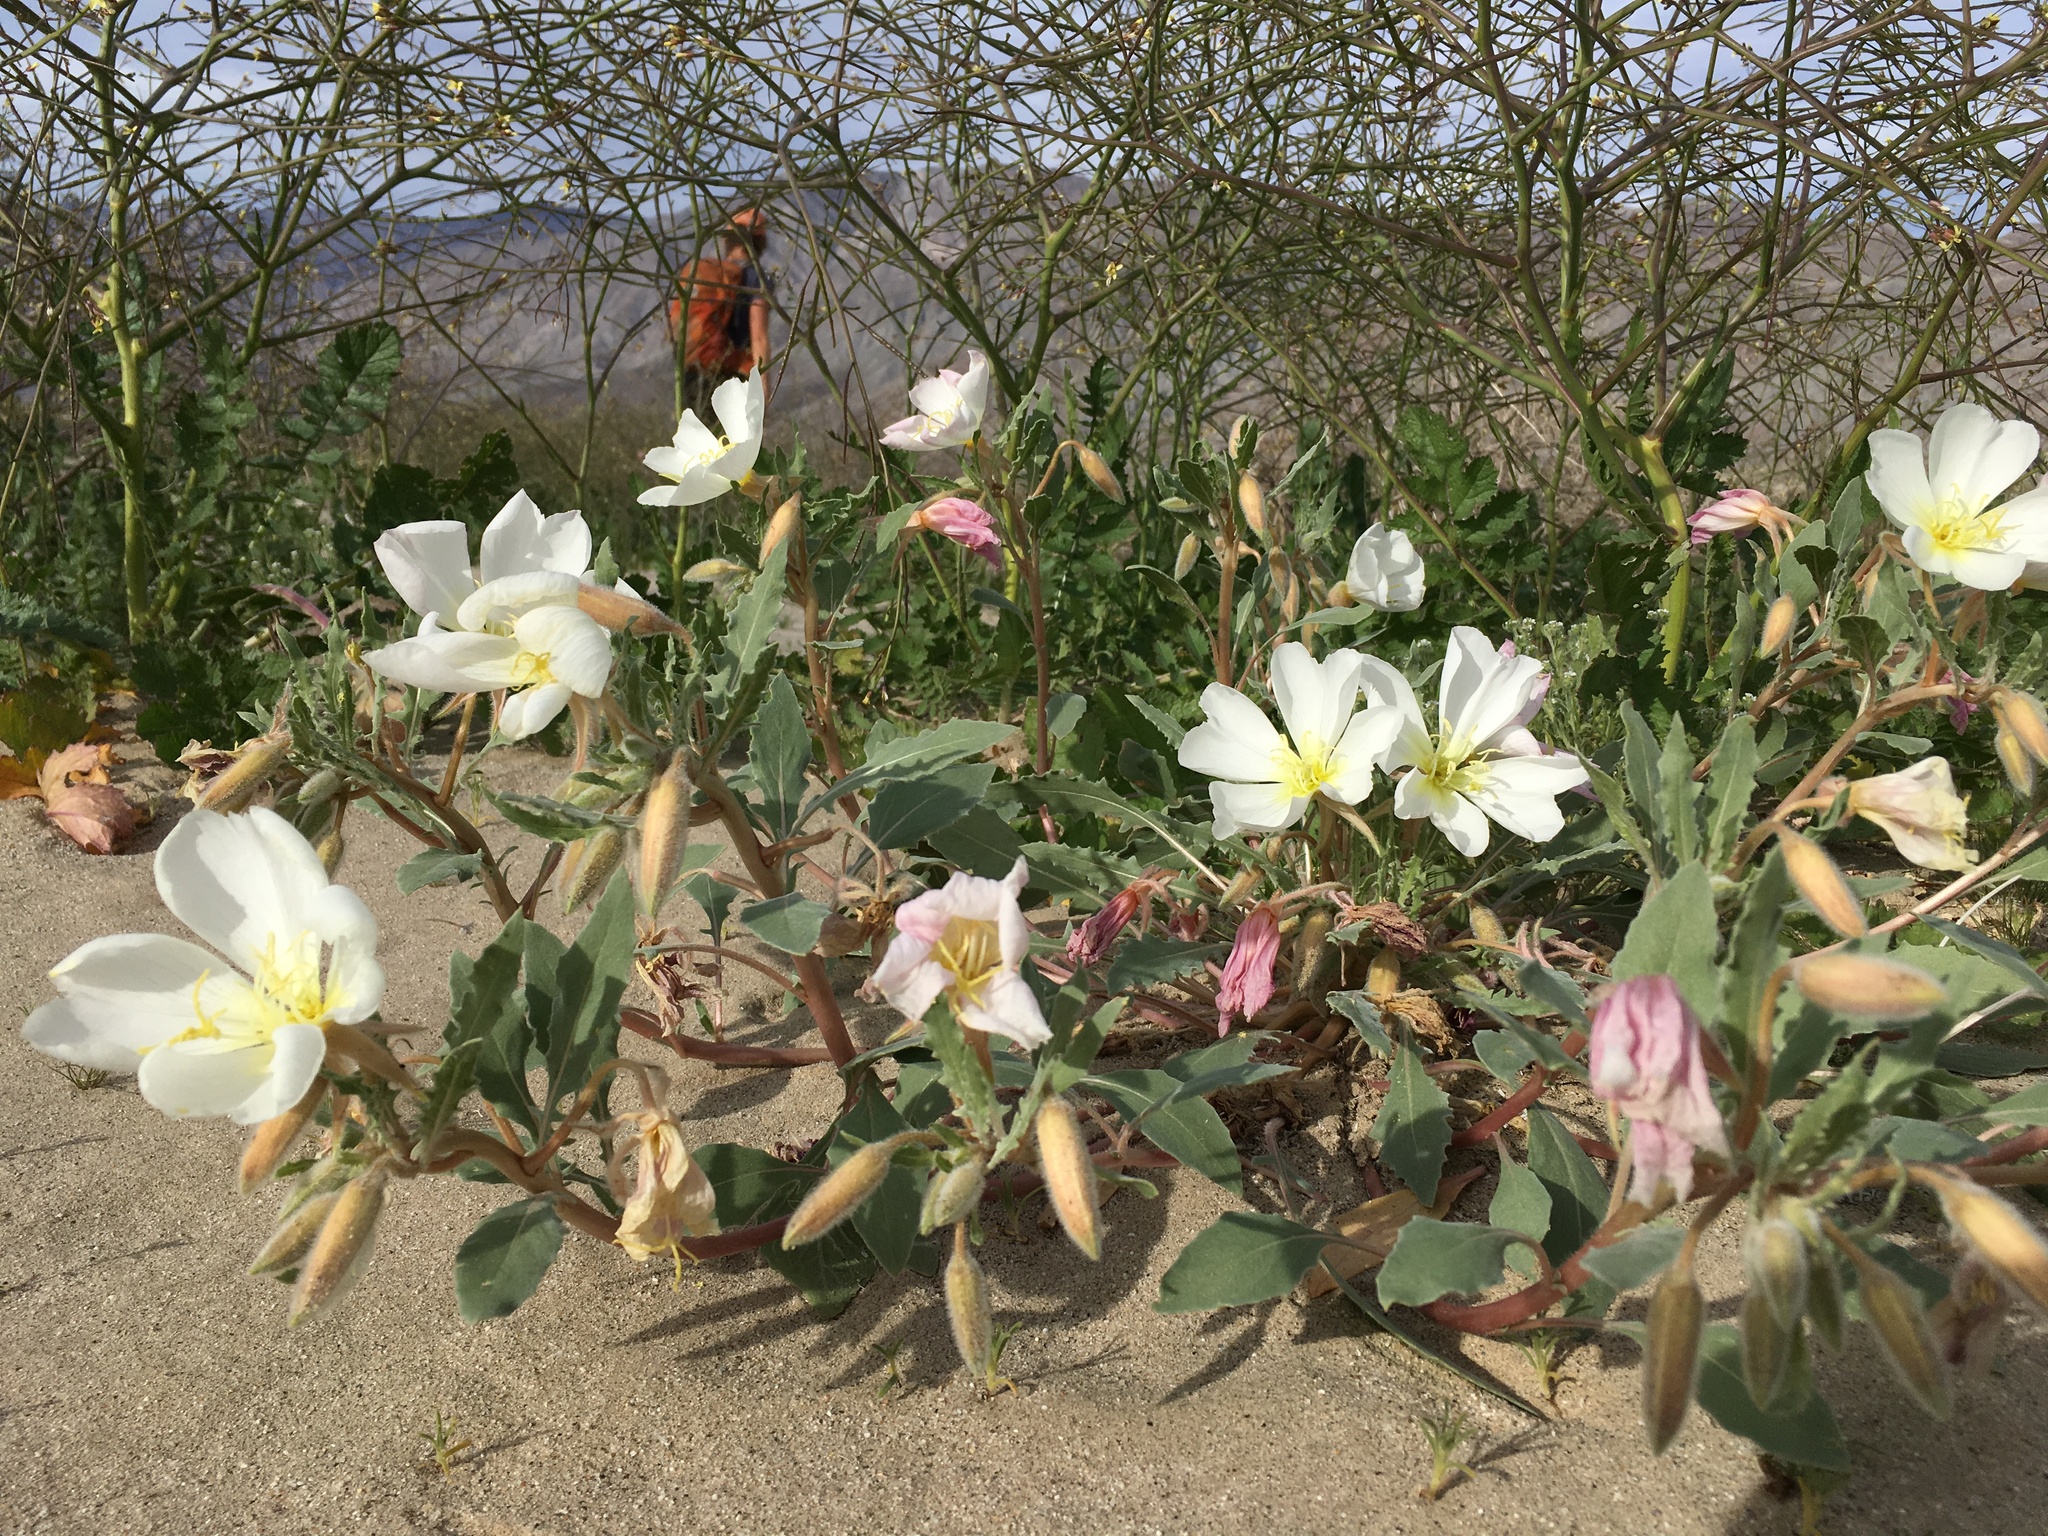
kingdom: Plantae
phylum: Tracheophyta
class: Magnoliopsida
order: Myrtales
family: Onagraceae
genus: Oenothera
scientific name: Oenothera deltoides
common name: Basket evening-primrose
